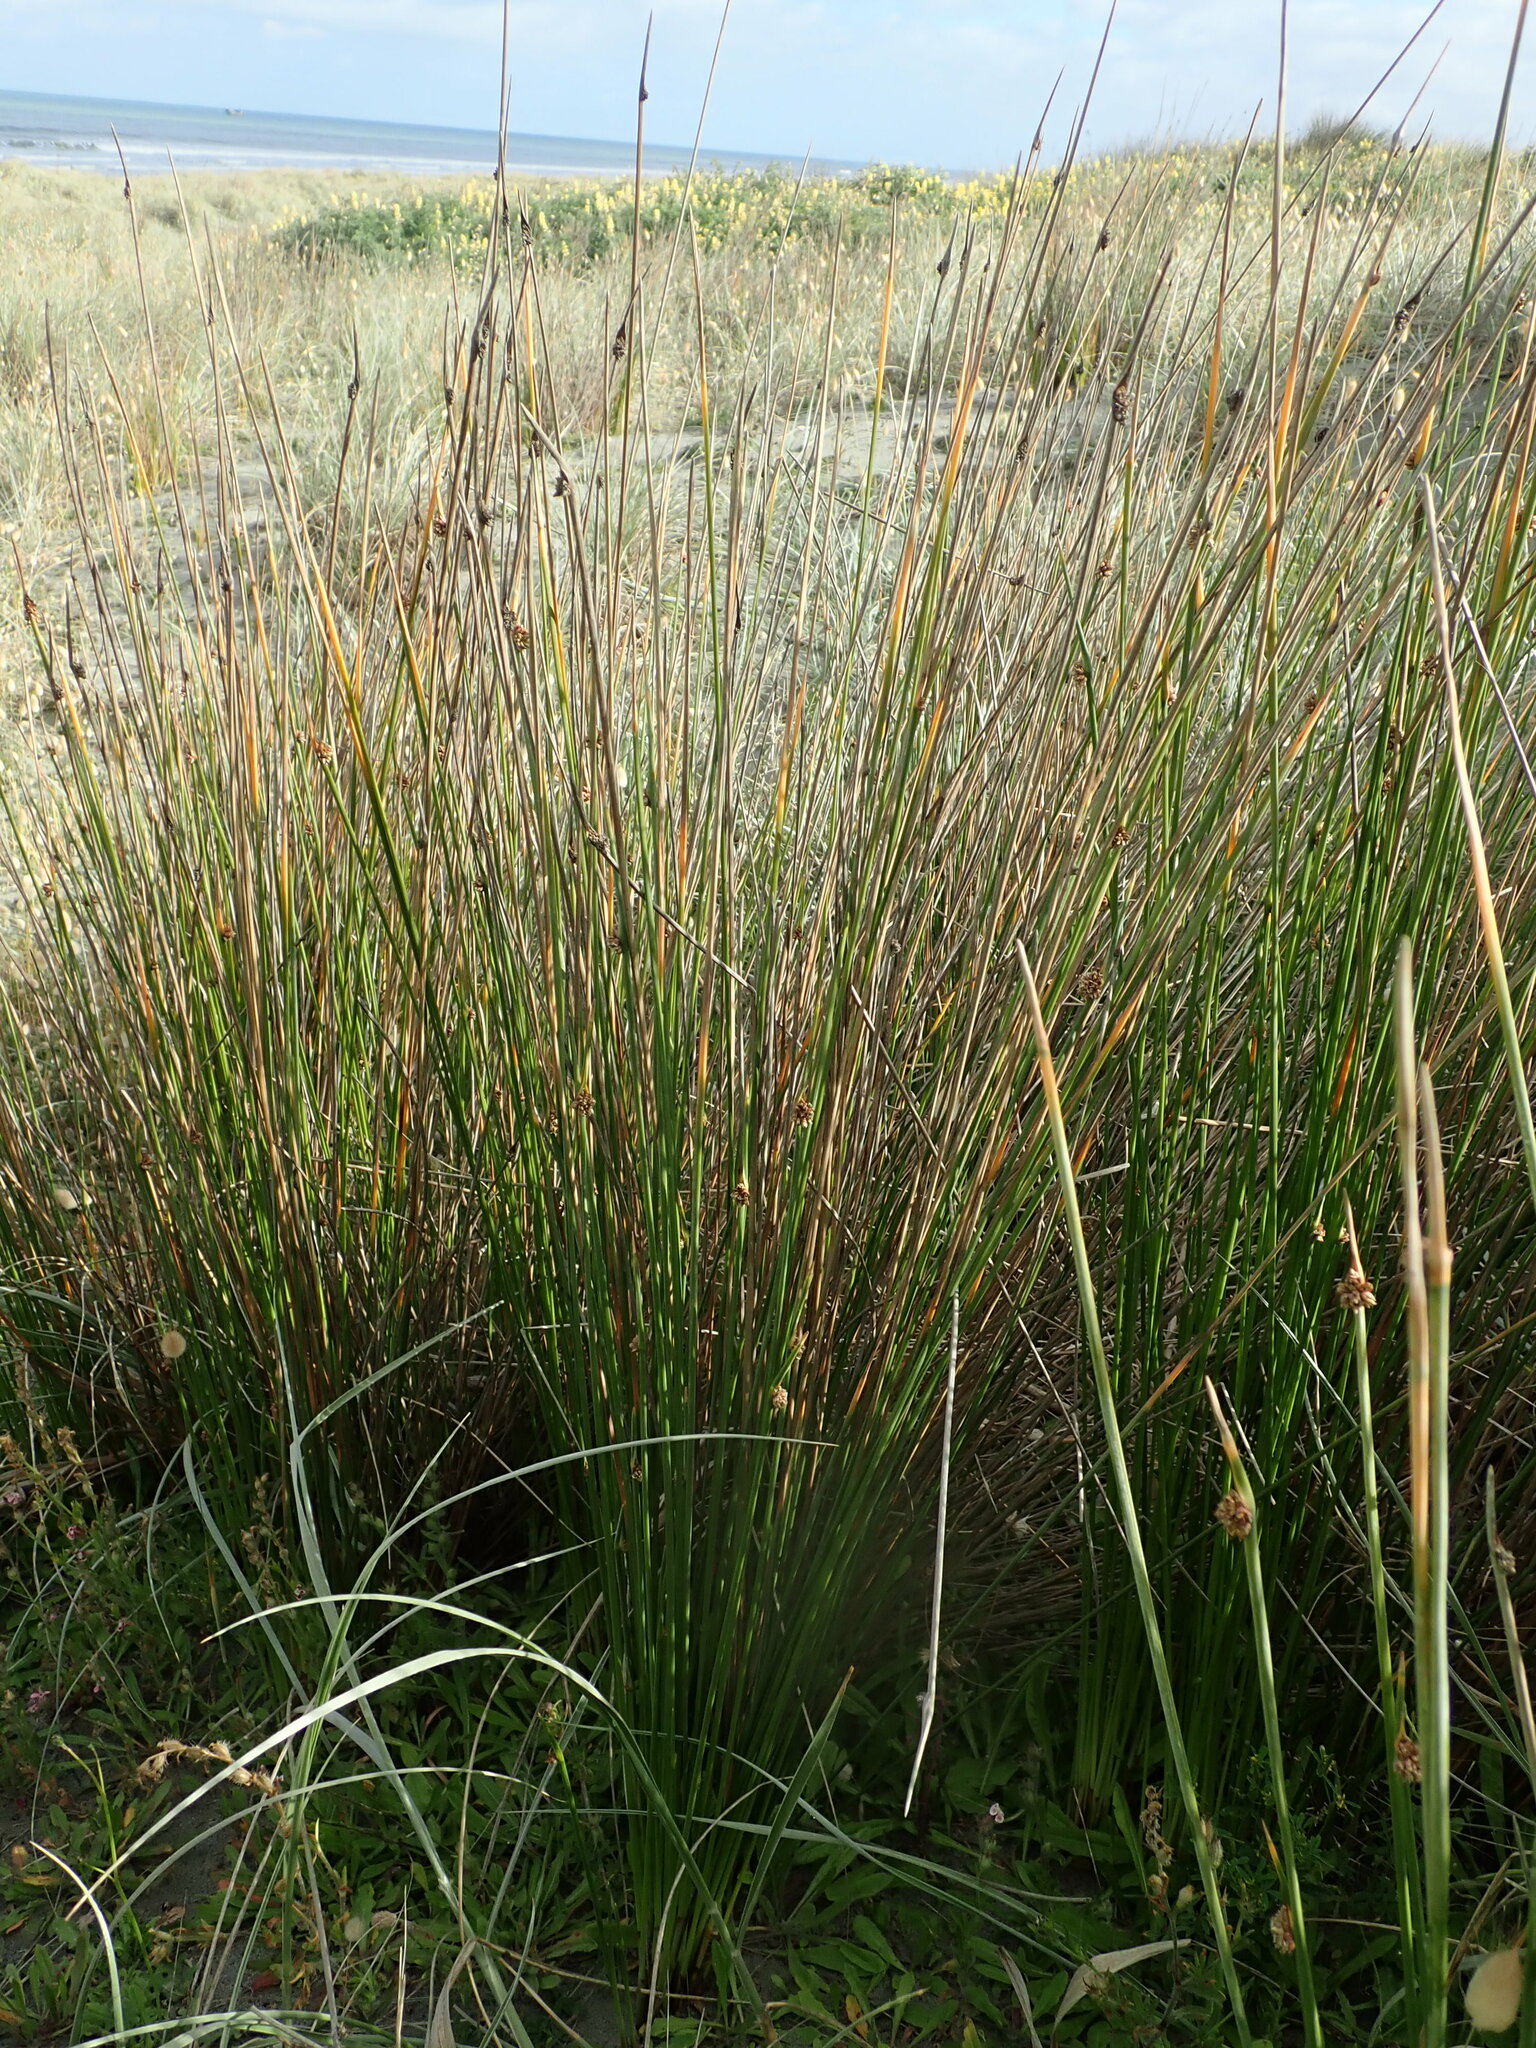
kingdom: Plantae
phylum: Tracheophyta
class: Liliopsida
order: Poales
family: Cyperaceae
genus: Ficinia
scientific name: Ficinia nodosa
